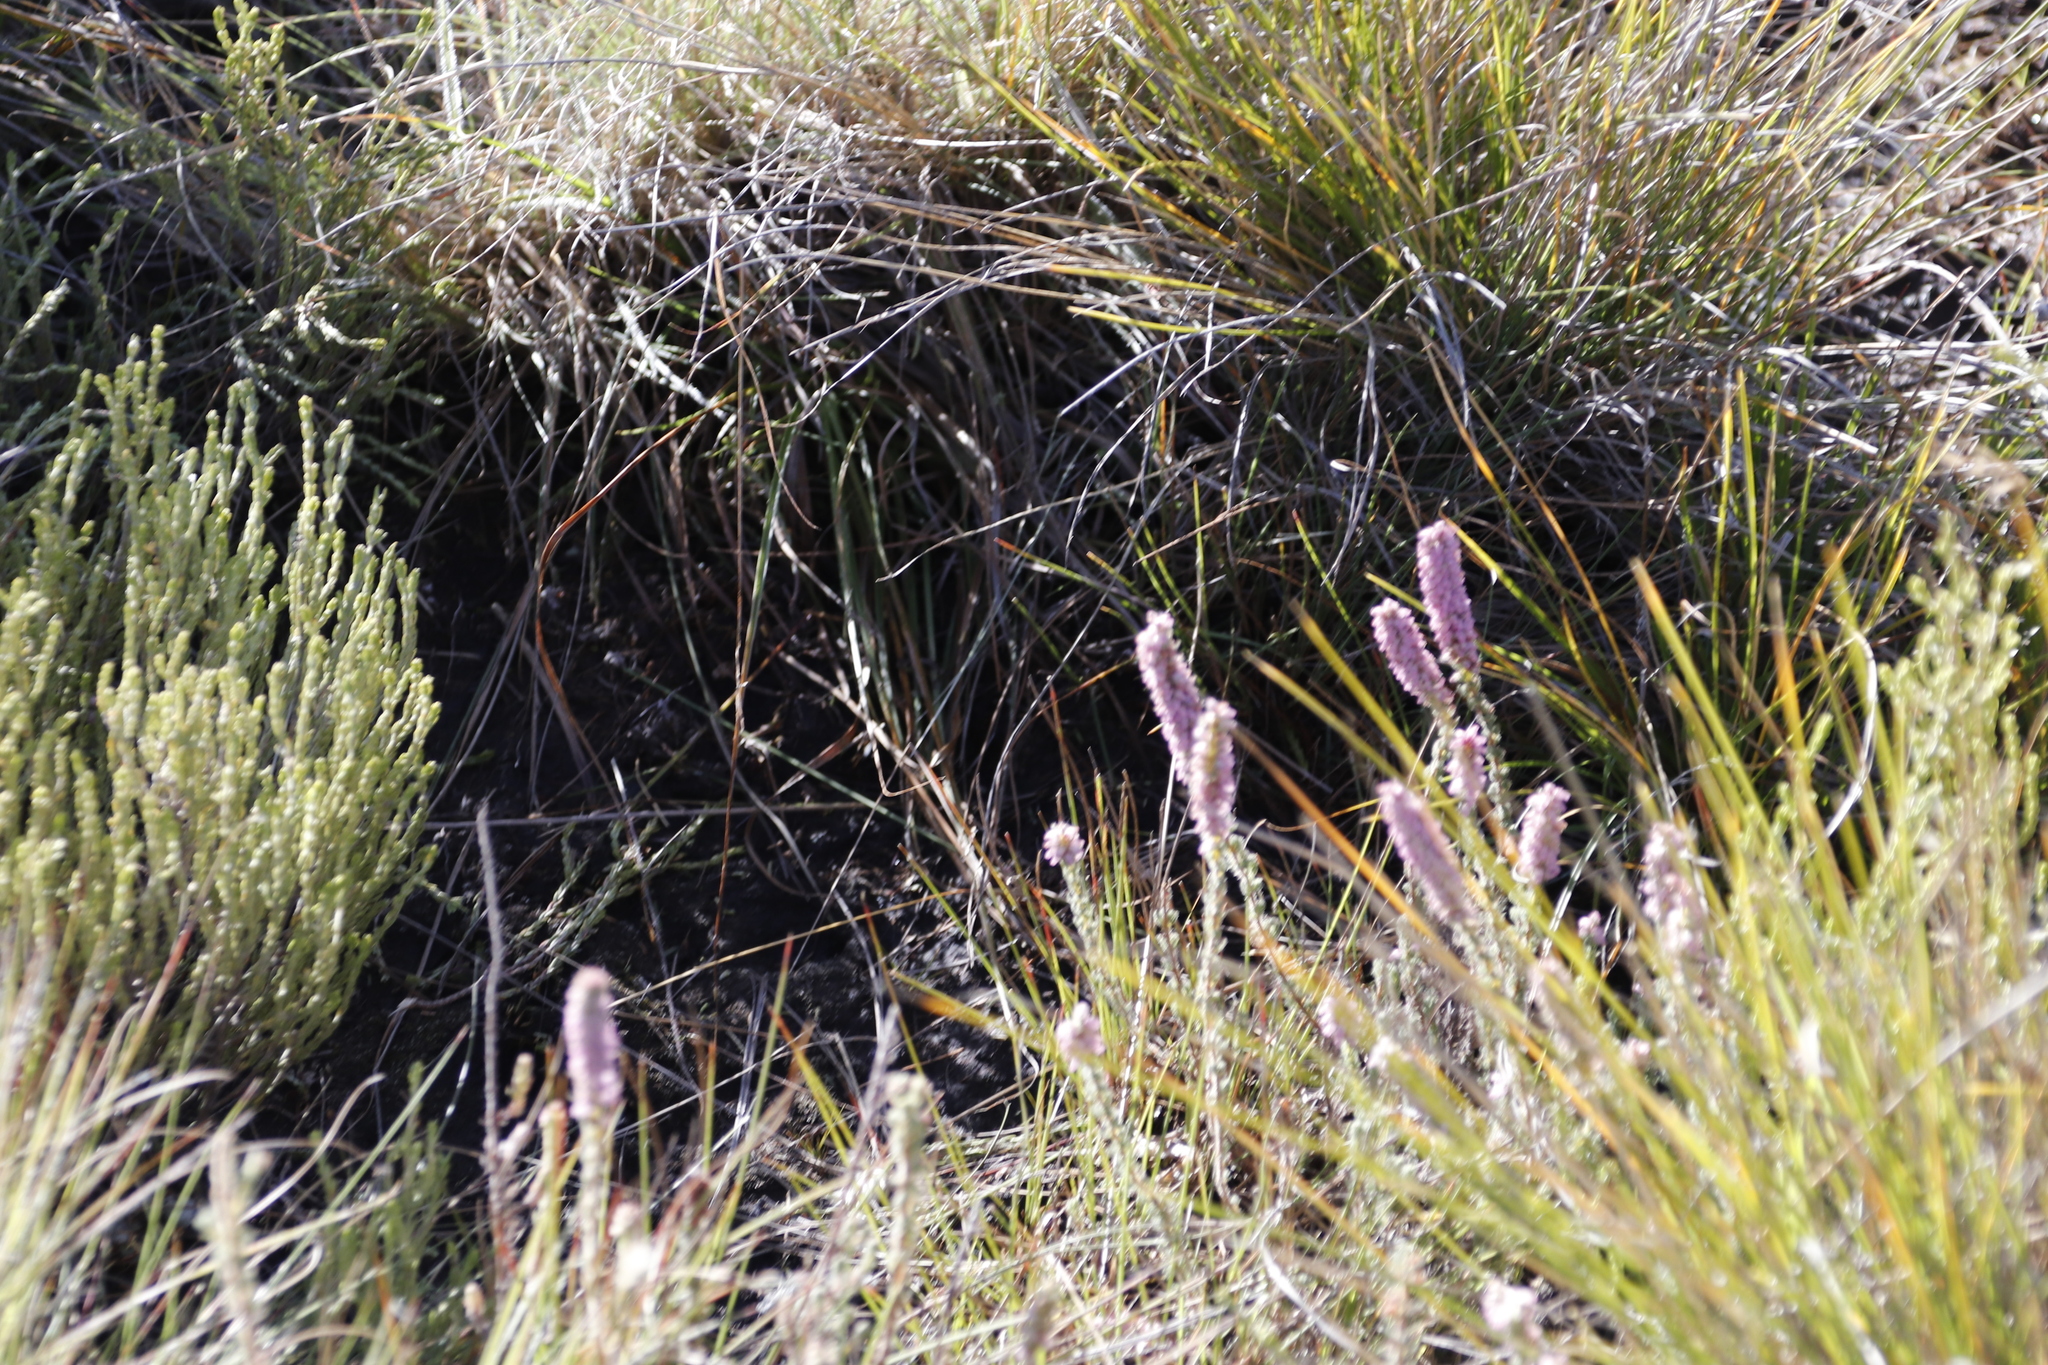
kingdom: Plantae
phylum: Tracheophyta
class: Magnoliopsida
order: Ericales
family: Ericaceae
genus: Erica
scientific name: Erica alopecurus
